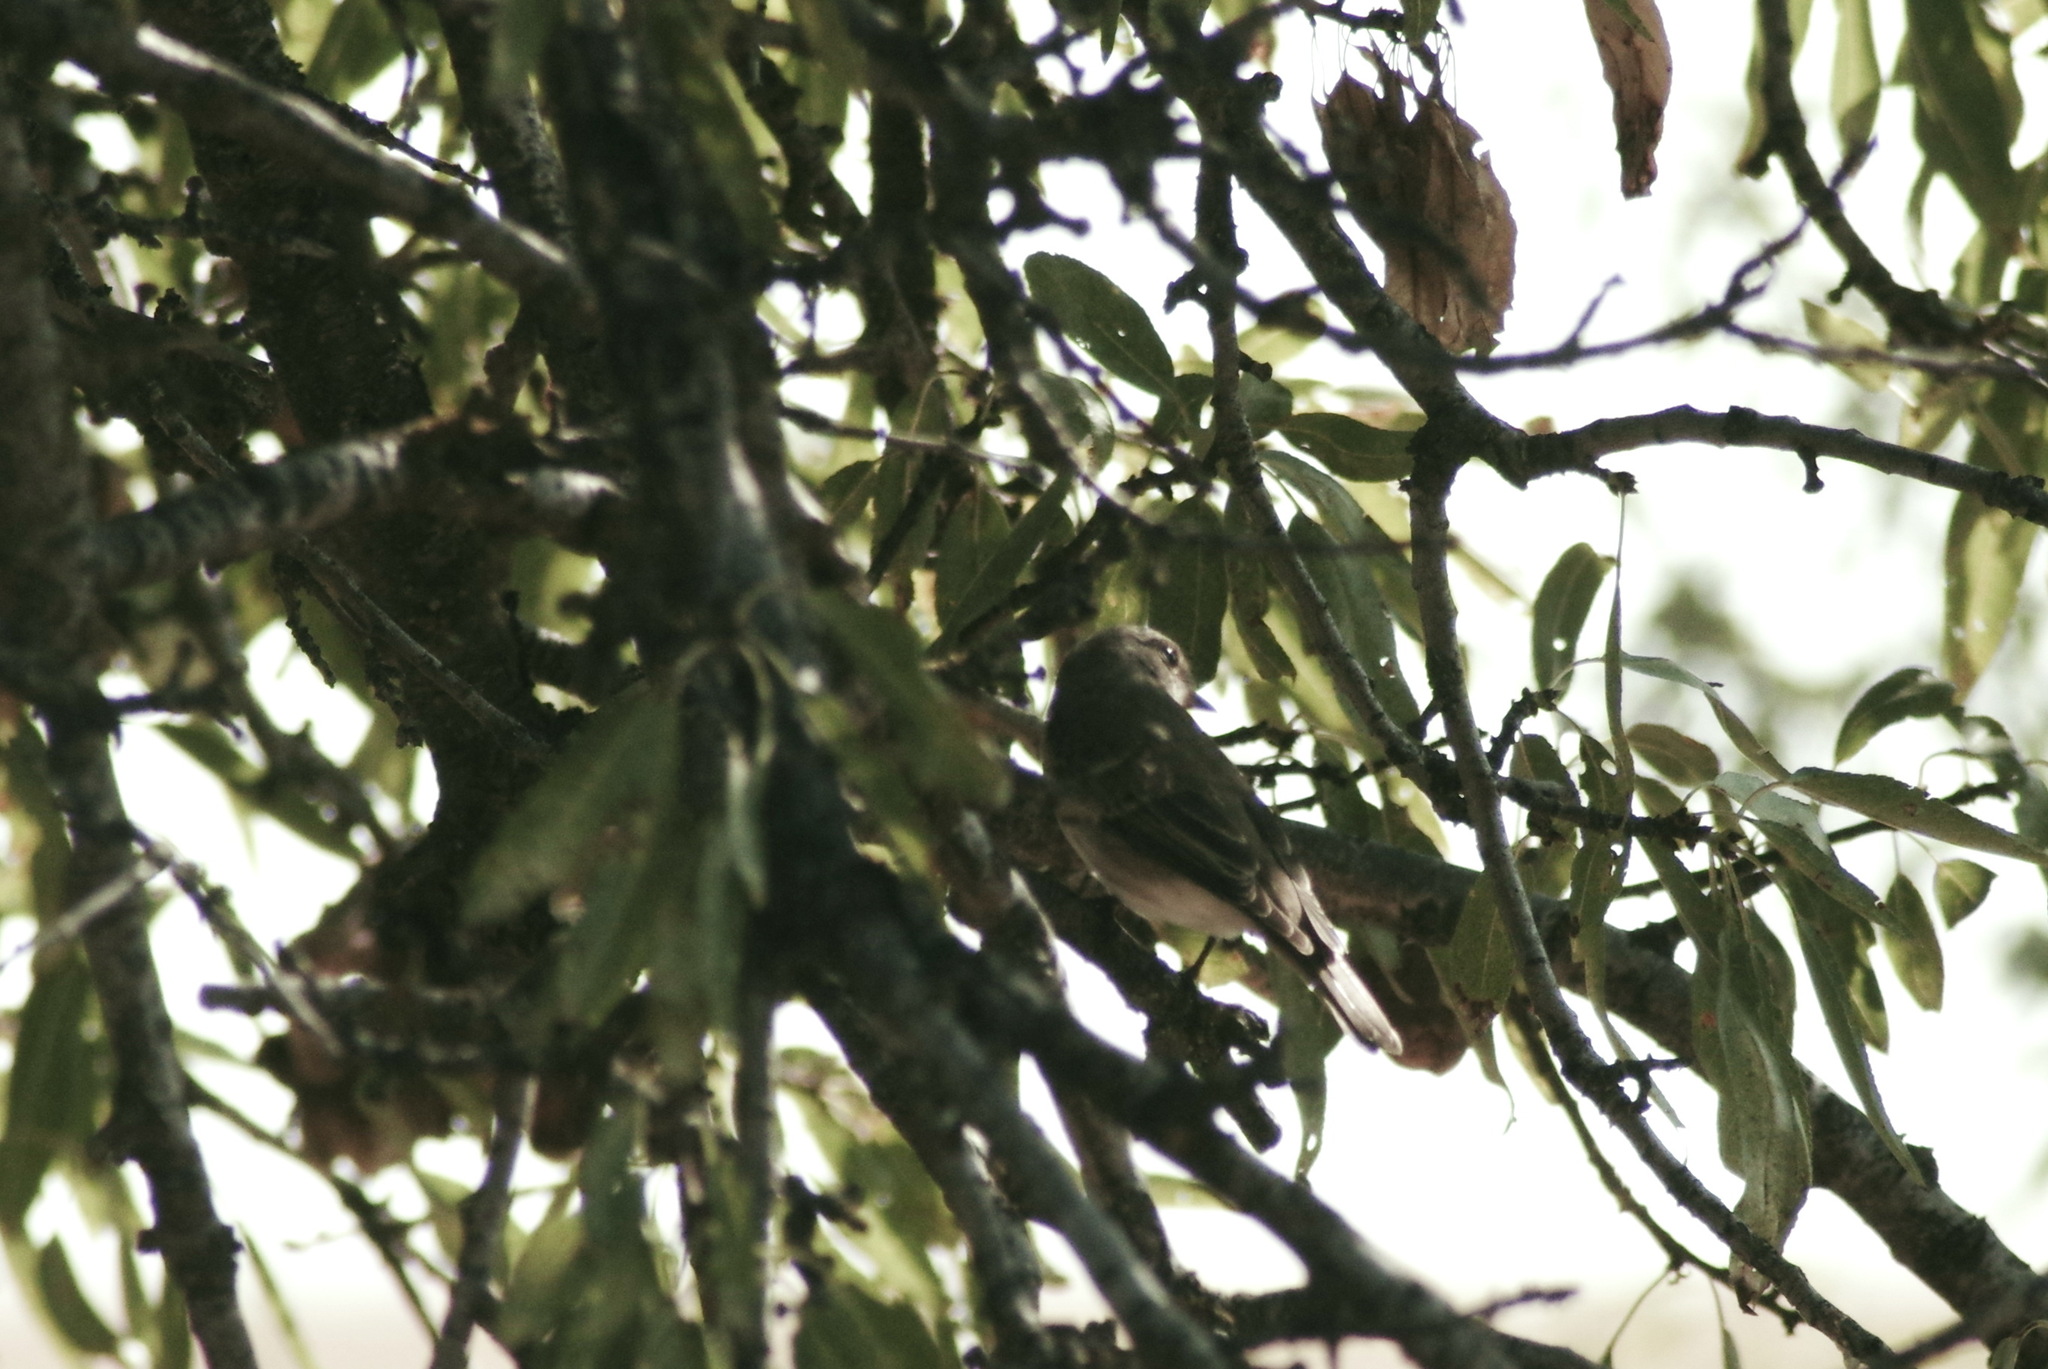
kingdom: Animalia
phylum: Chordata
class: Aves
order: Passeriformes
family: Muscicapidae
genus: Muscicapa
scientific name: Muscicapa striata
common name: Spotted flycatcher
